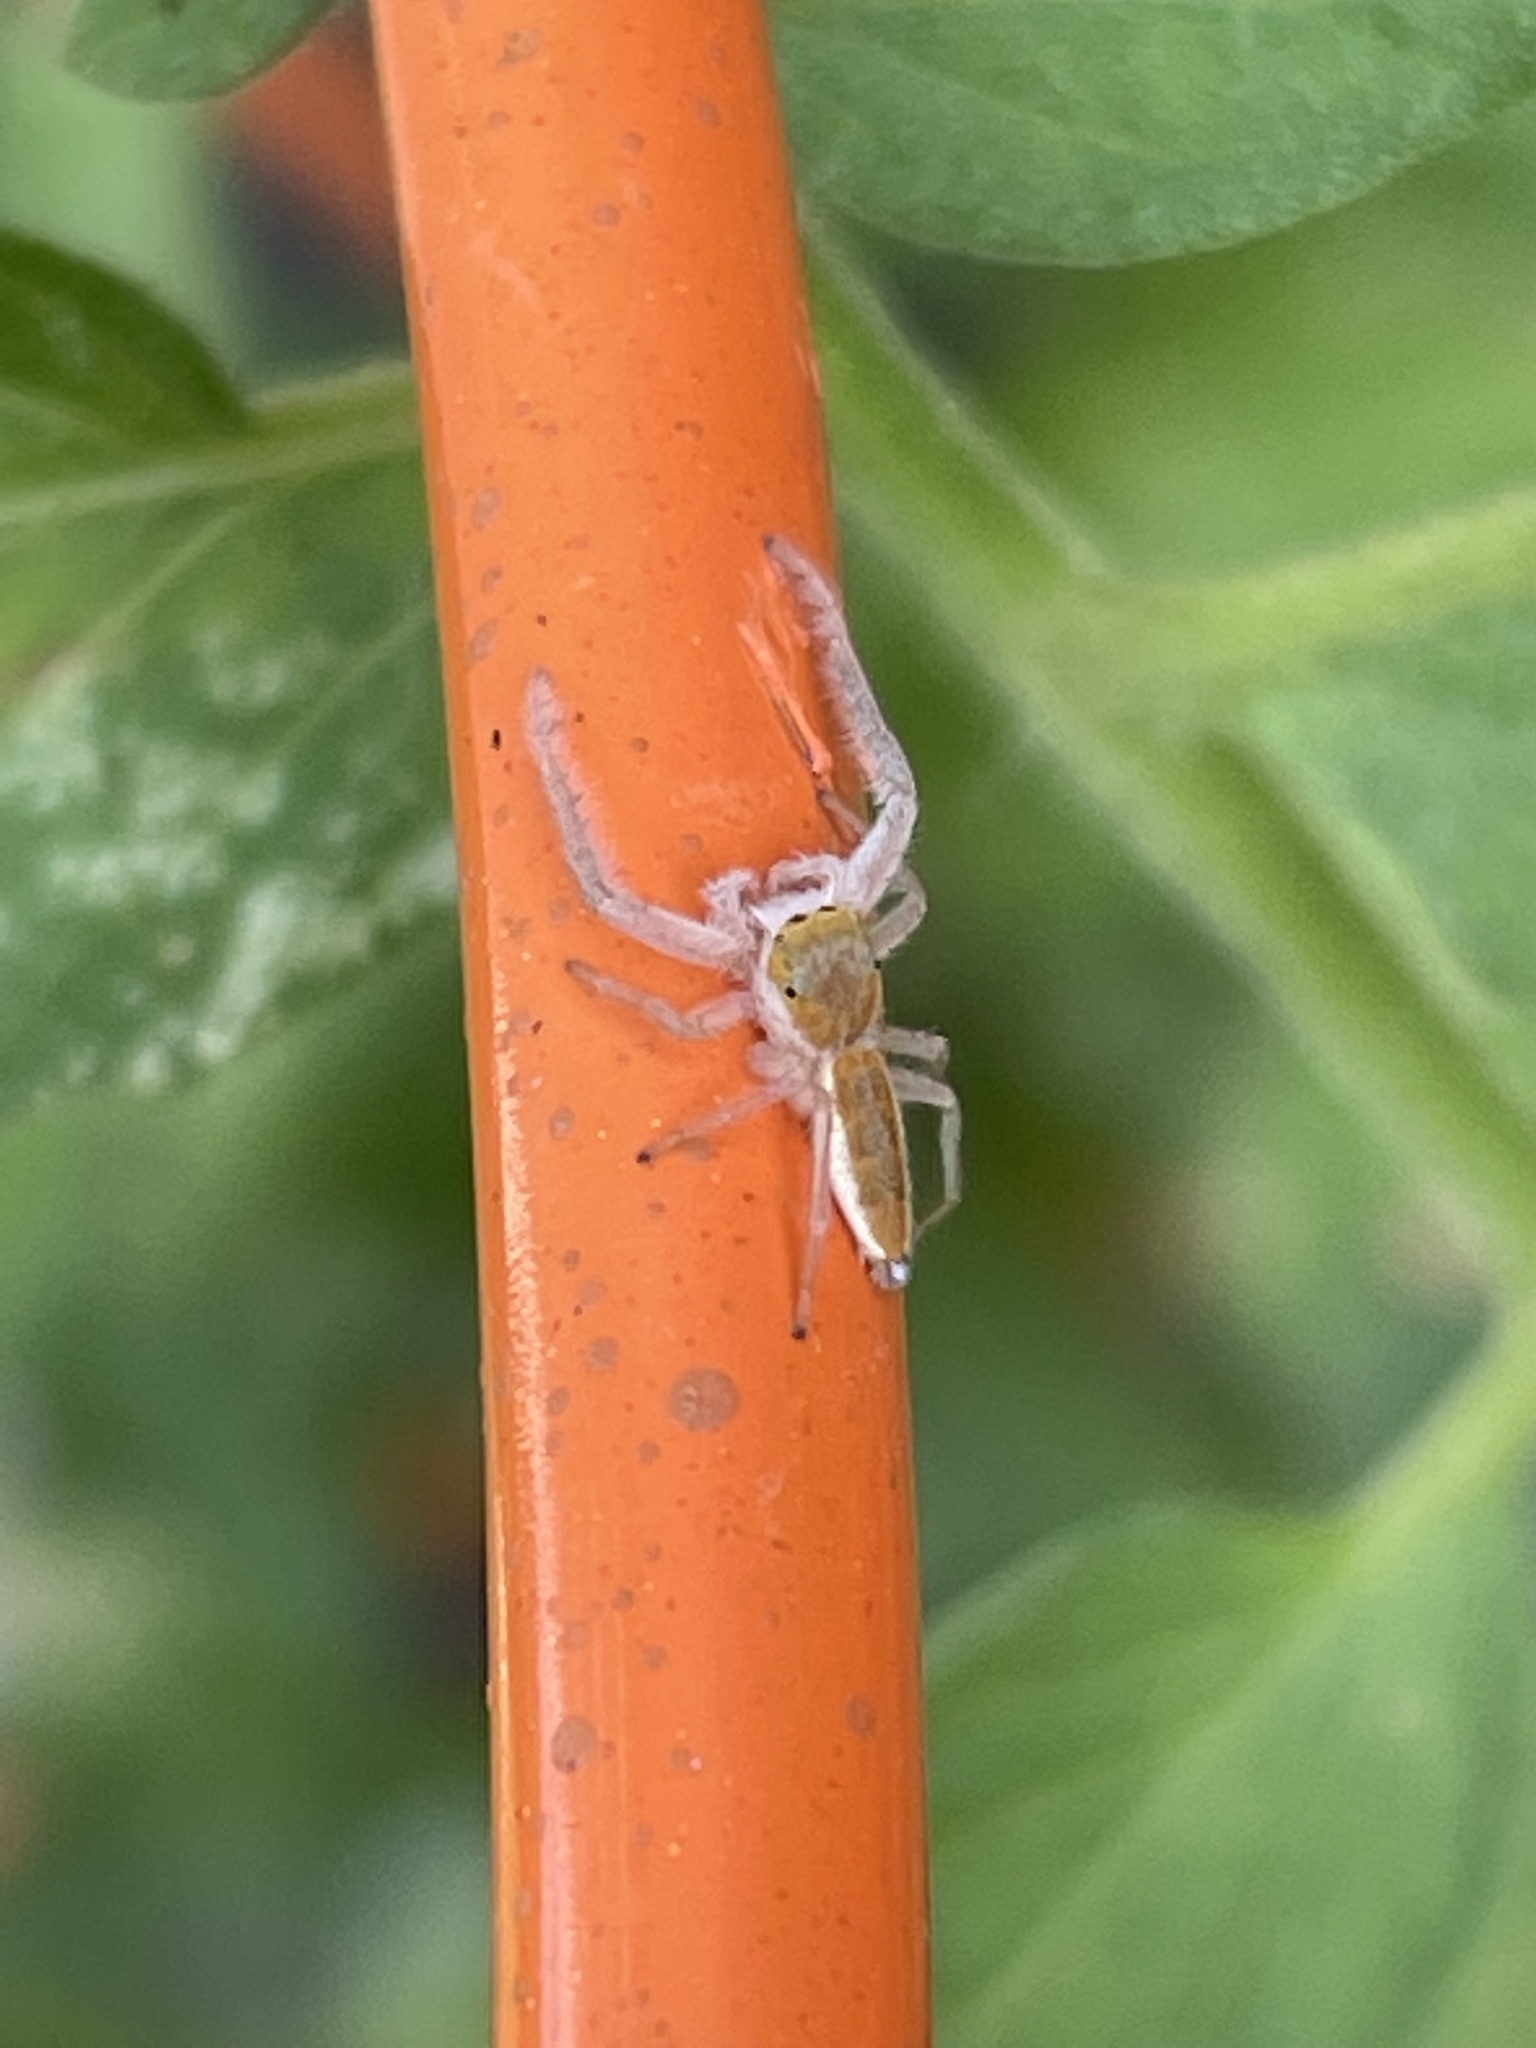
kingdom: Animalia
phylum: Arthropoda
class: Arachnida
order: Araneae
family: Salticidae
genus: Hentzia
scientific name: Hentzia mitrata
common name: White-jawed jumping spider
